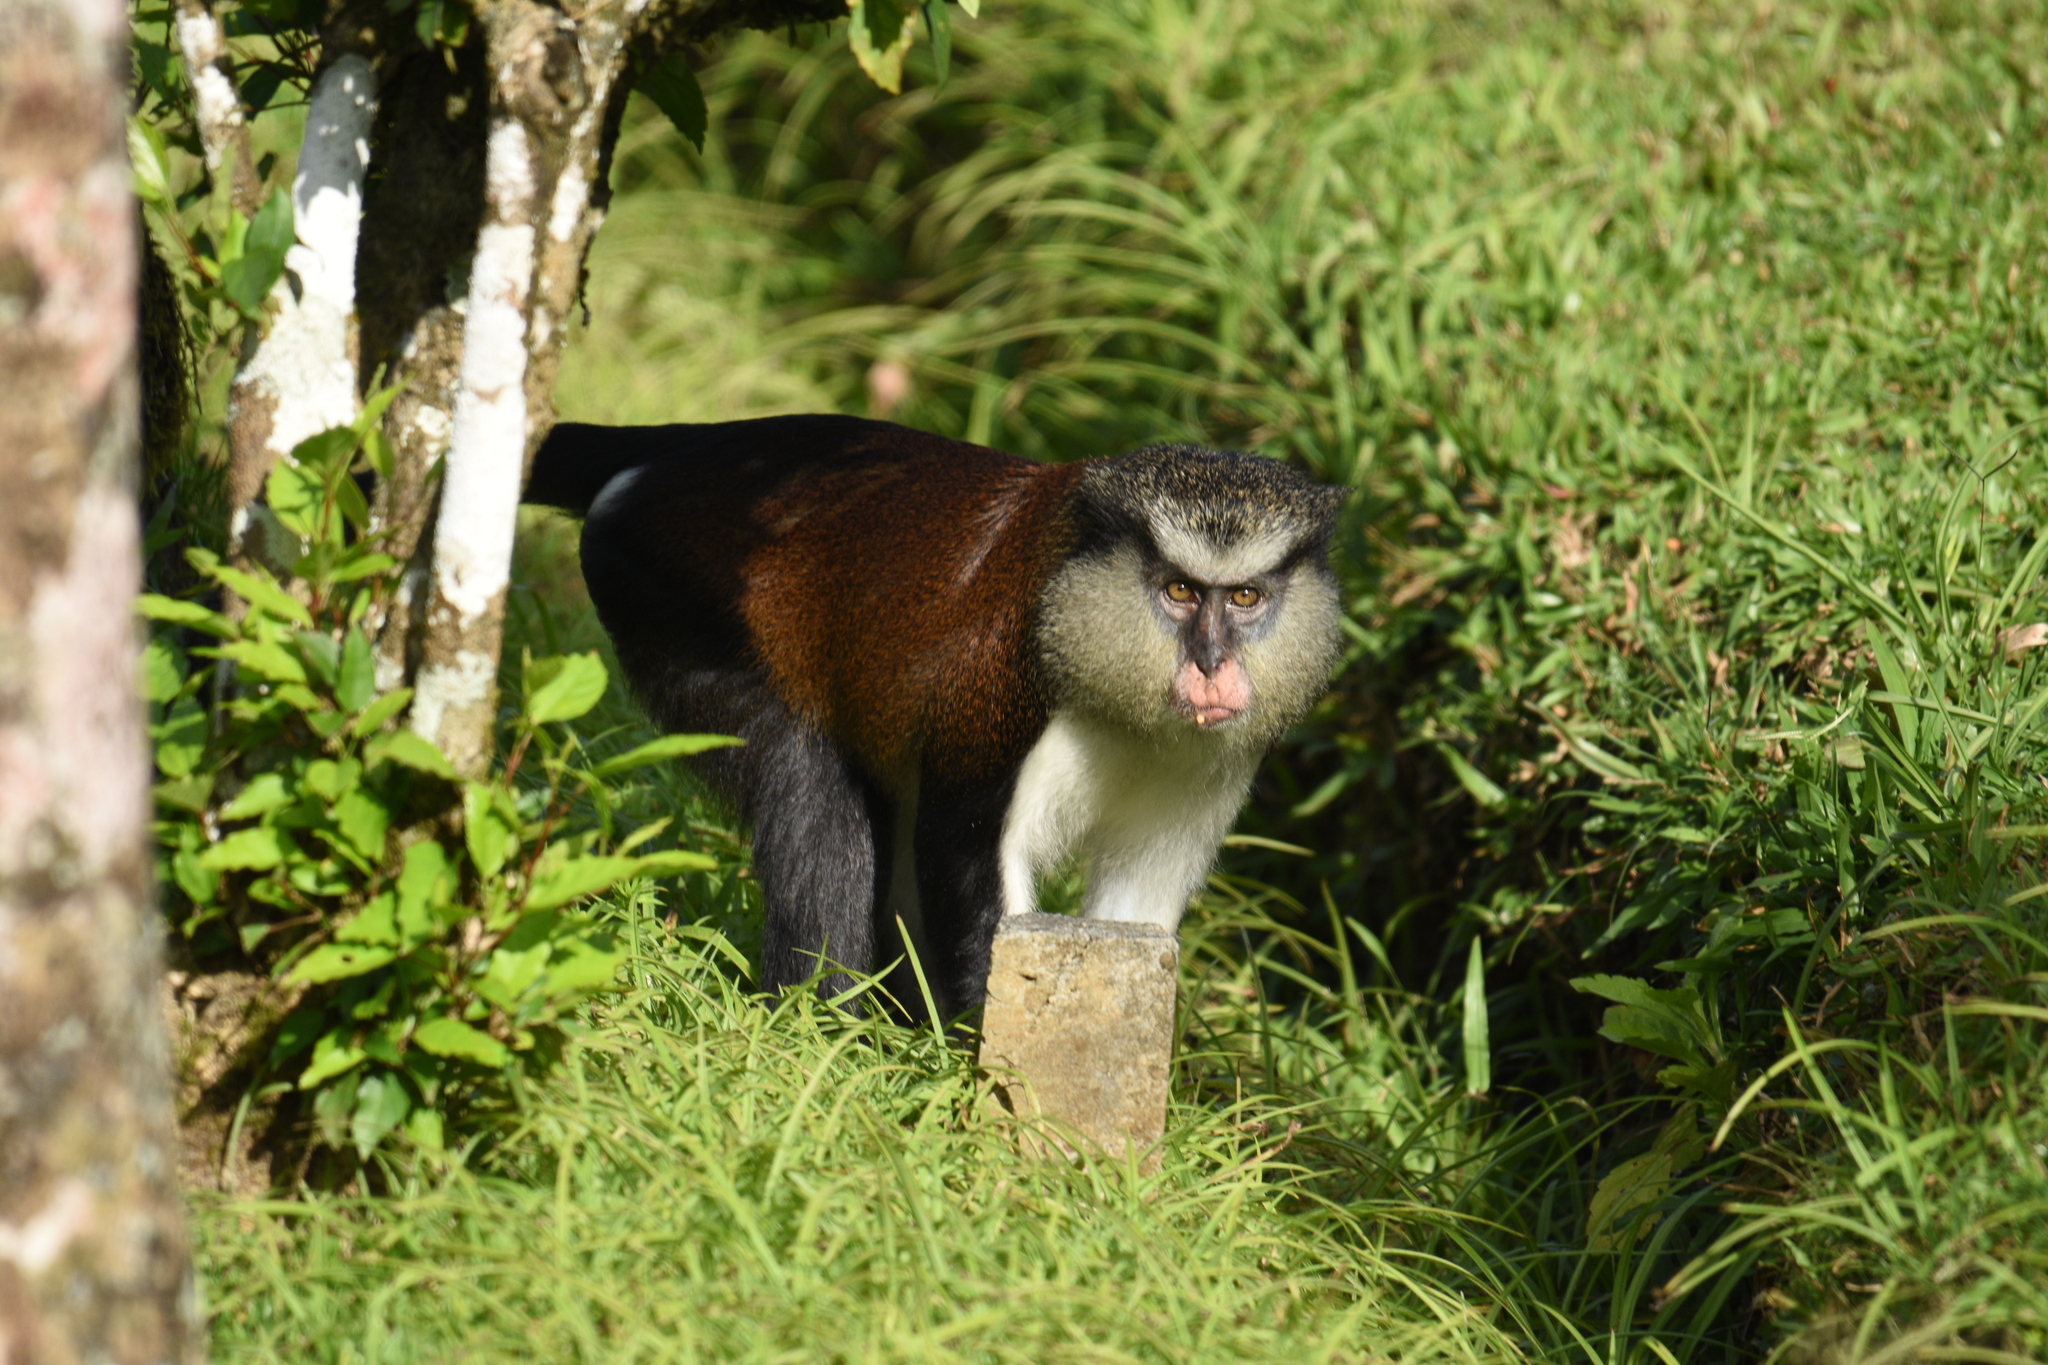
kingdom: Animalia
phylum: Chordata
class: Mammalia
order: Primates
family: Cercopithecidae
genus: Cercopithecus
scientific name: Cercopithecus mona
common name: Mona monkey
